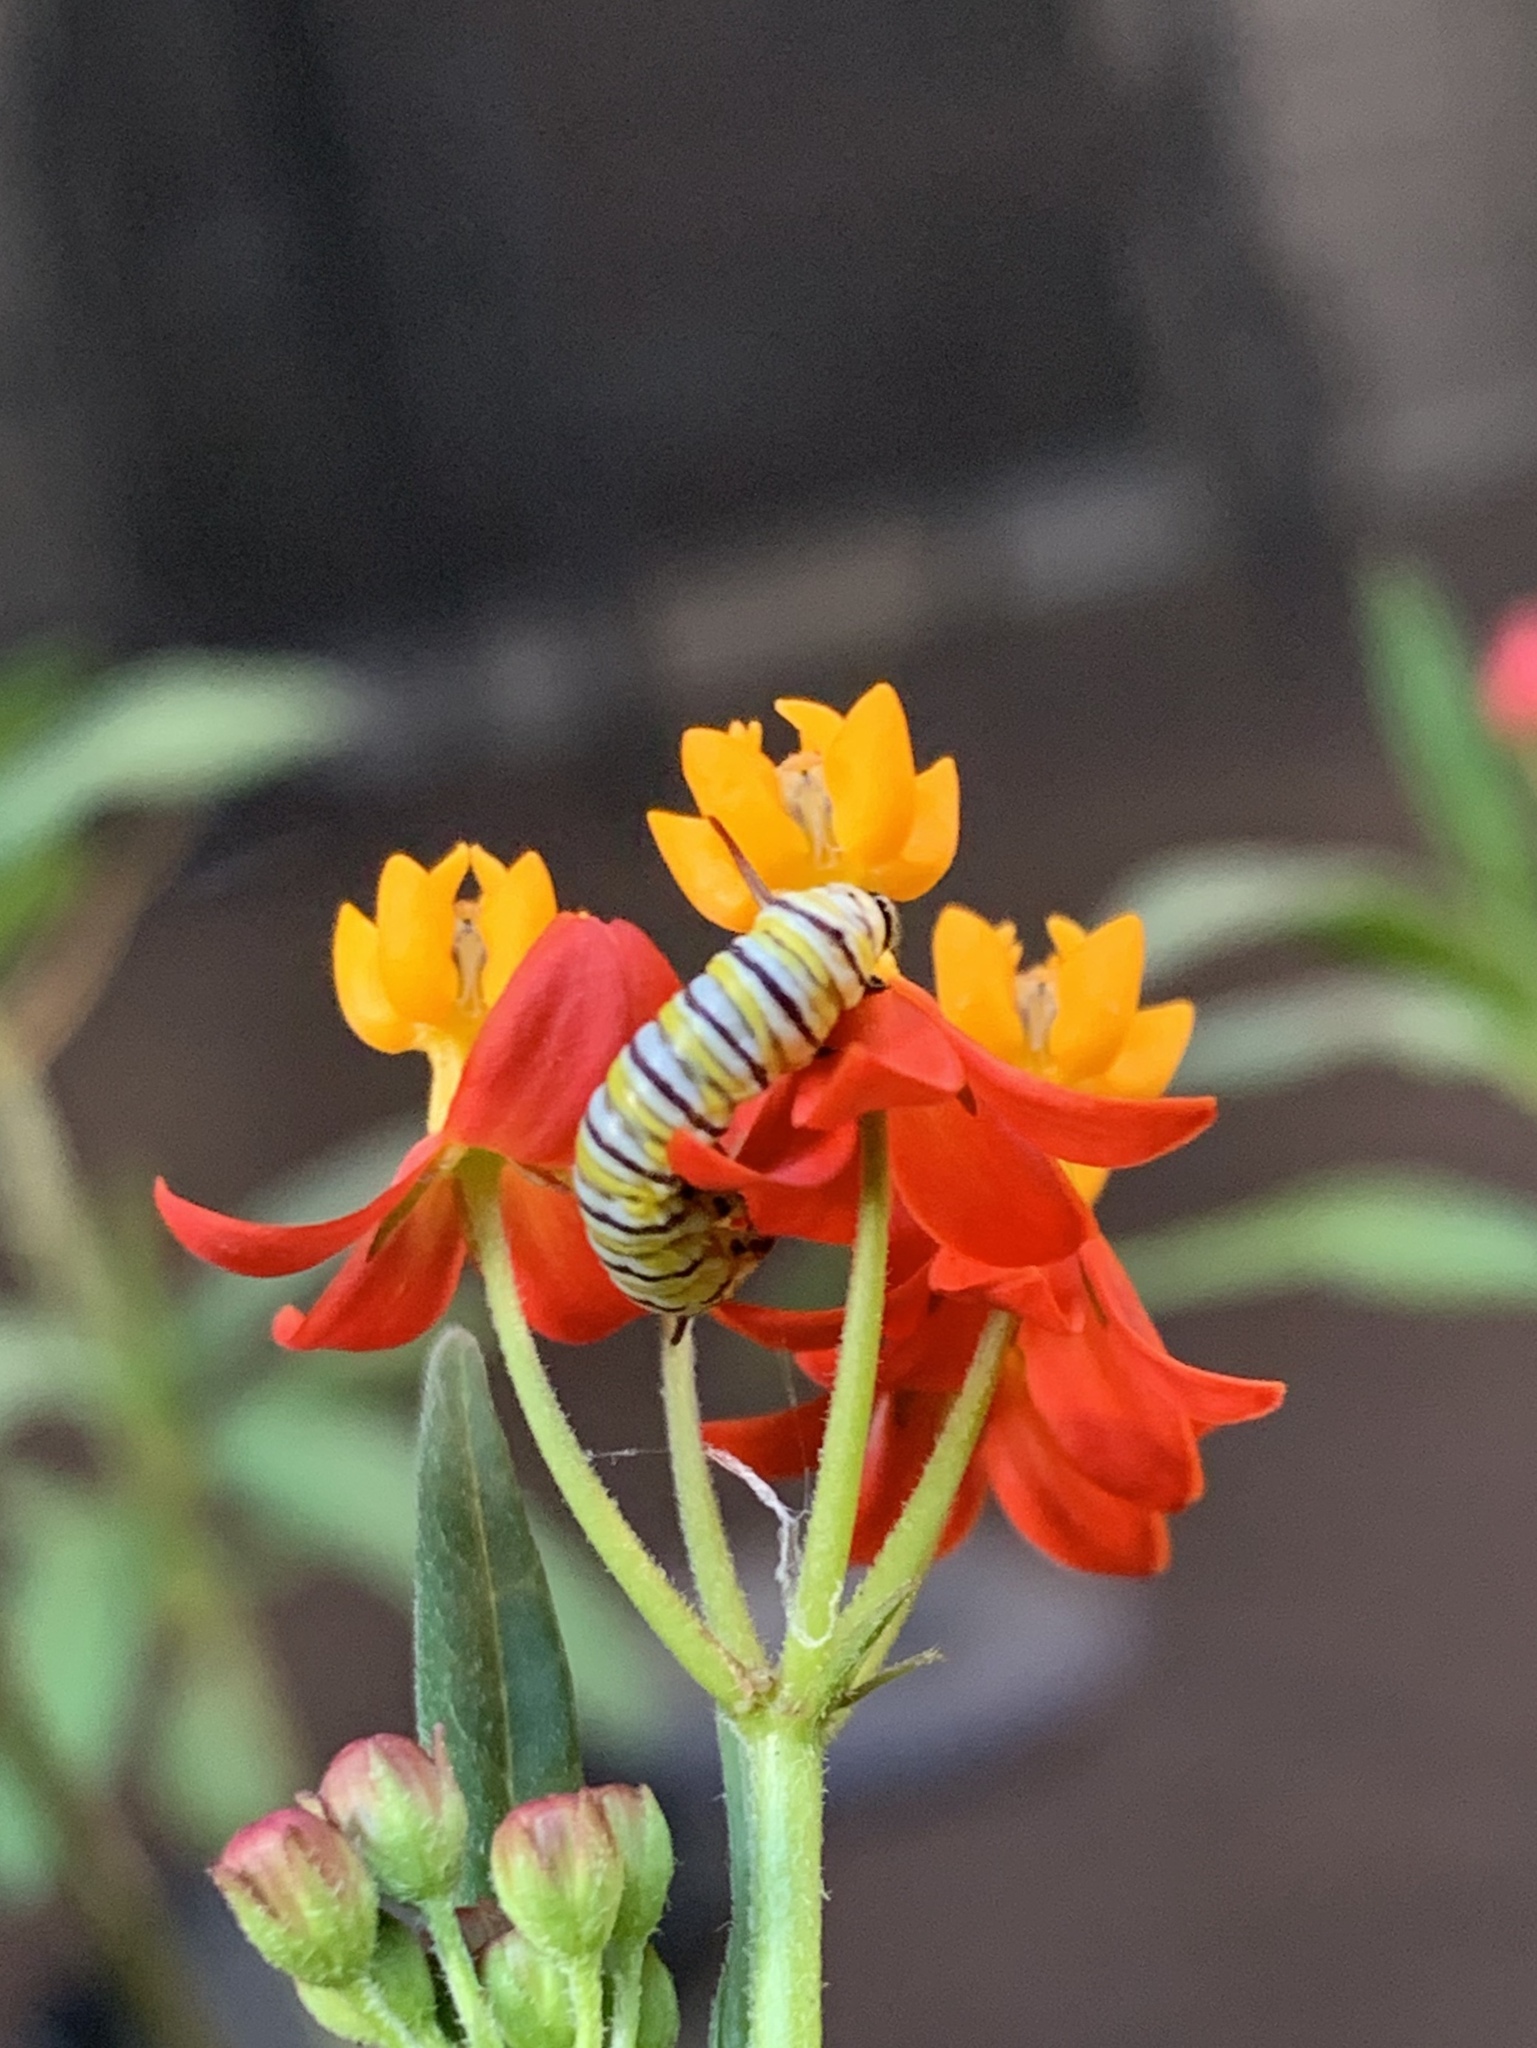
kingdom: Animalia
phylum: Arthropoda
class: Insecta
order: Lepidoptera
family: Nymphalidae
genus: Danaus
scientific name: Danaus plexippus
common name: Monarch
